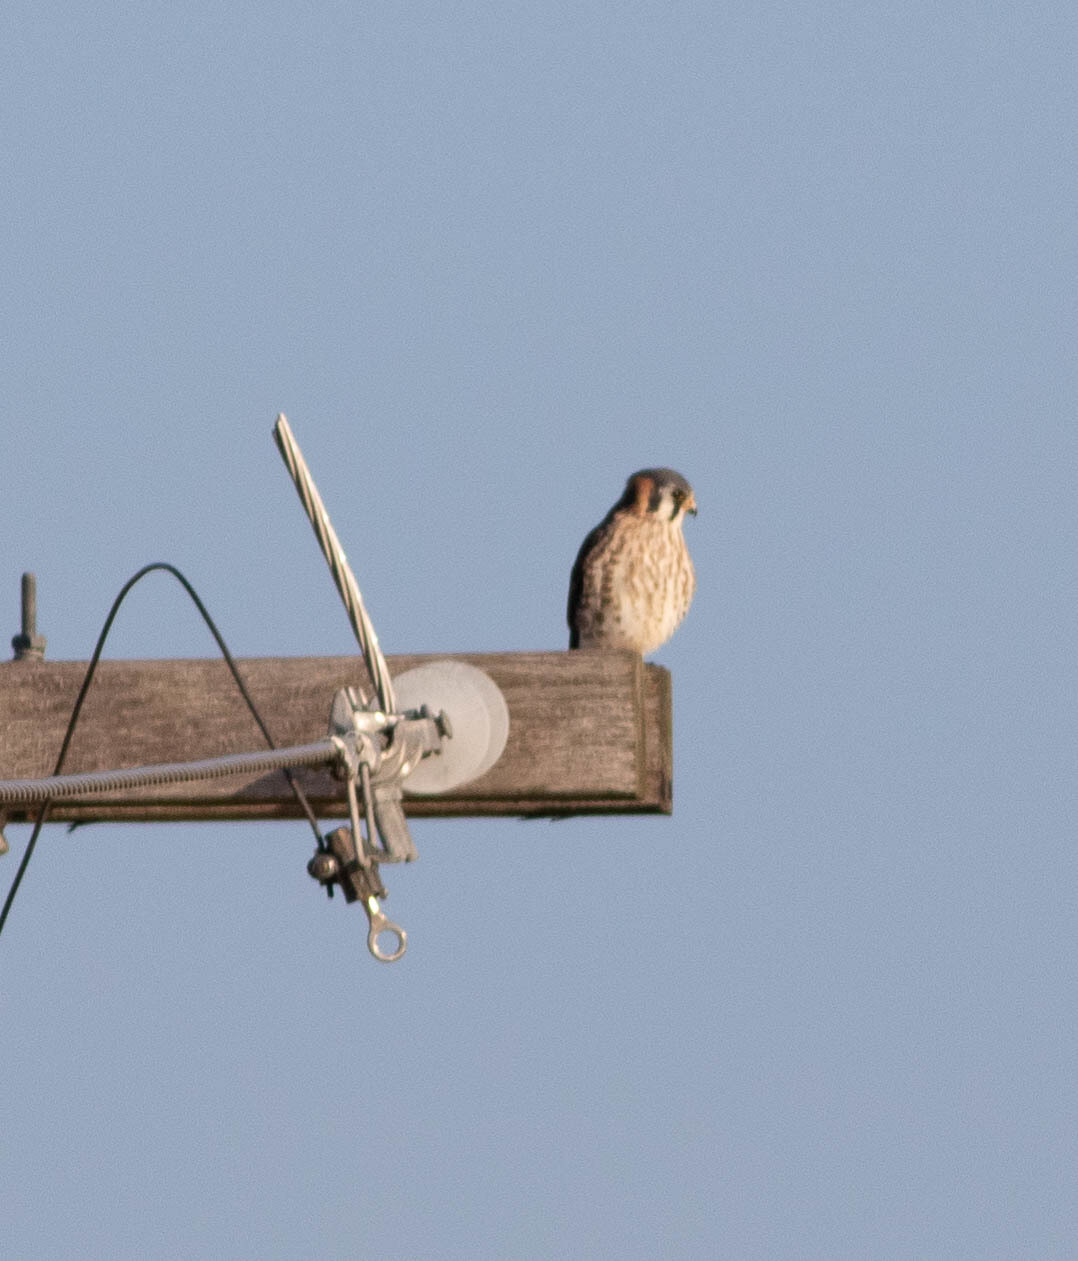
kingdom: Animalia
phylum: Chordata
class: Aves
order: Falconiformes
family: Falconidae
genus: Falco
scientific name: Falco sparverius
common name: American kestrel
